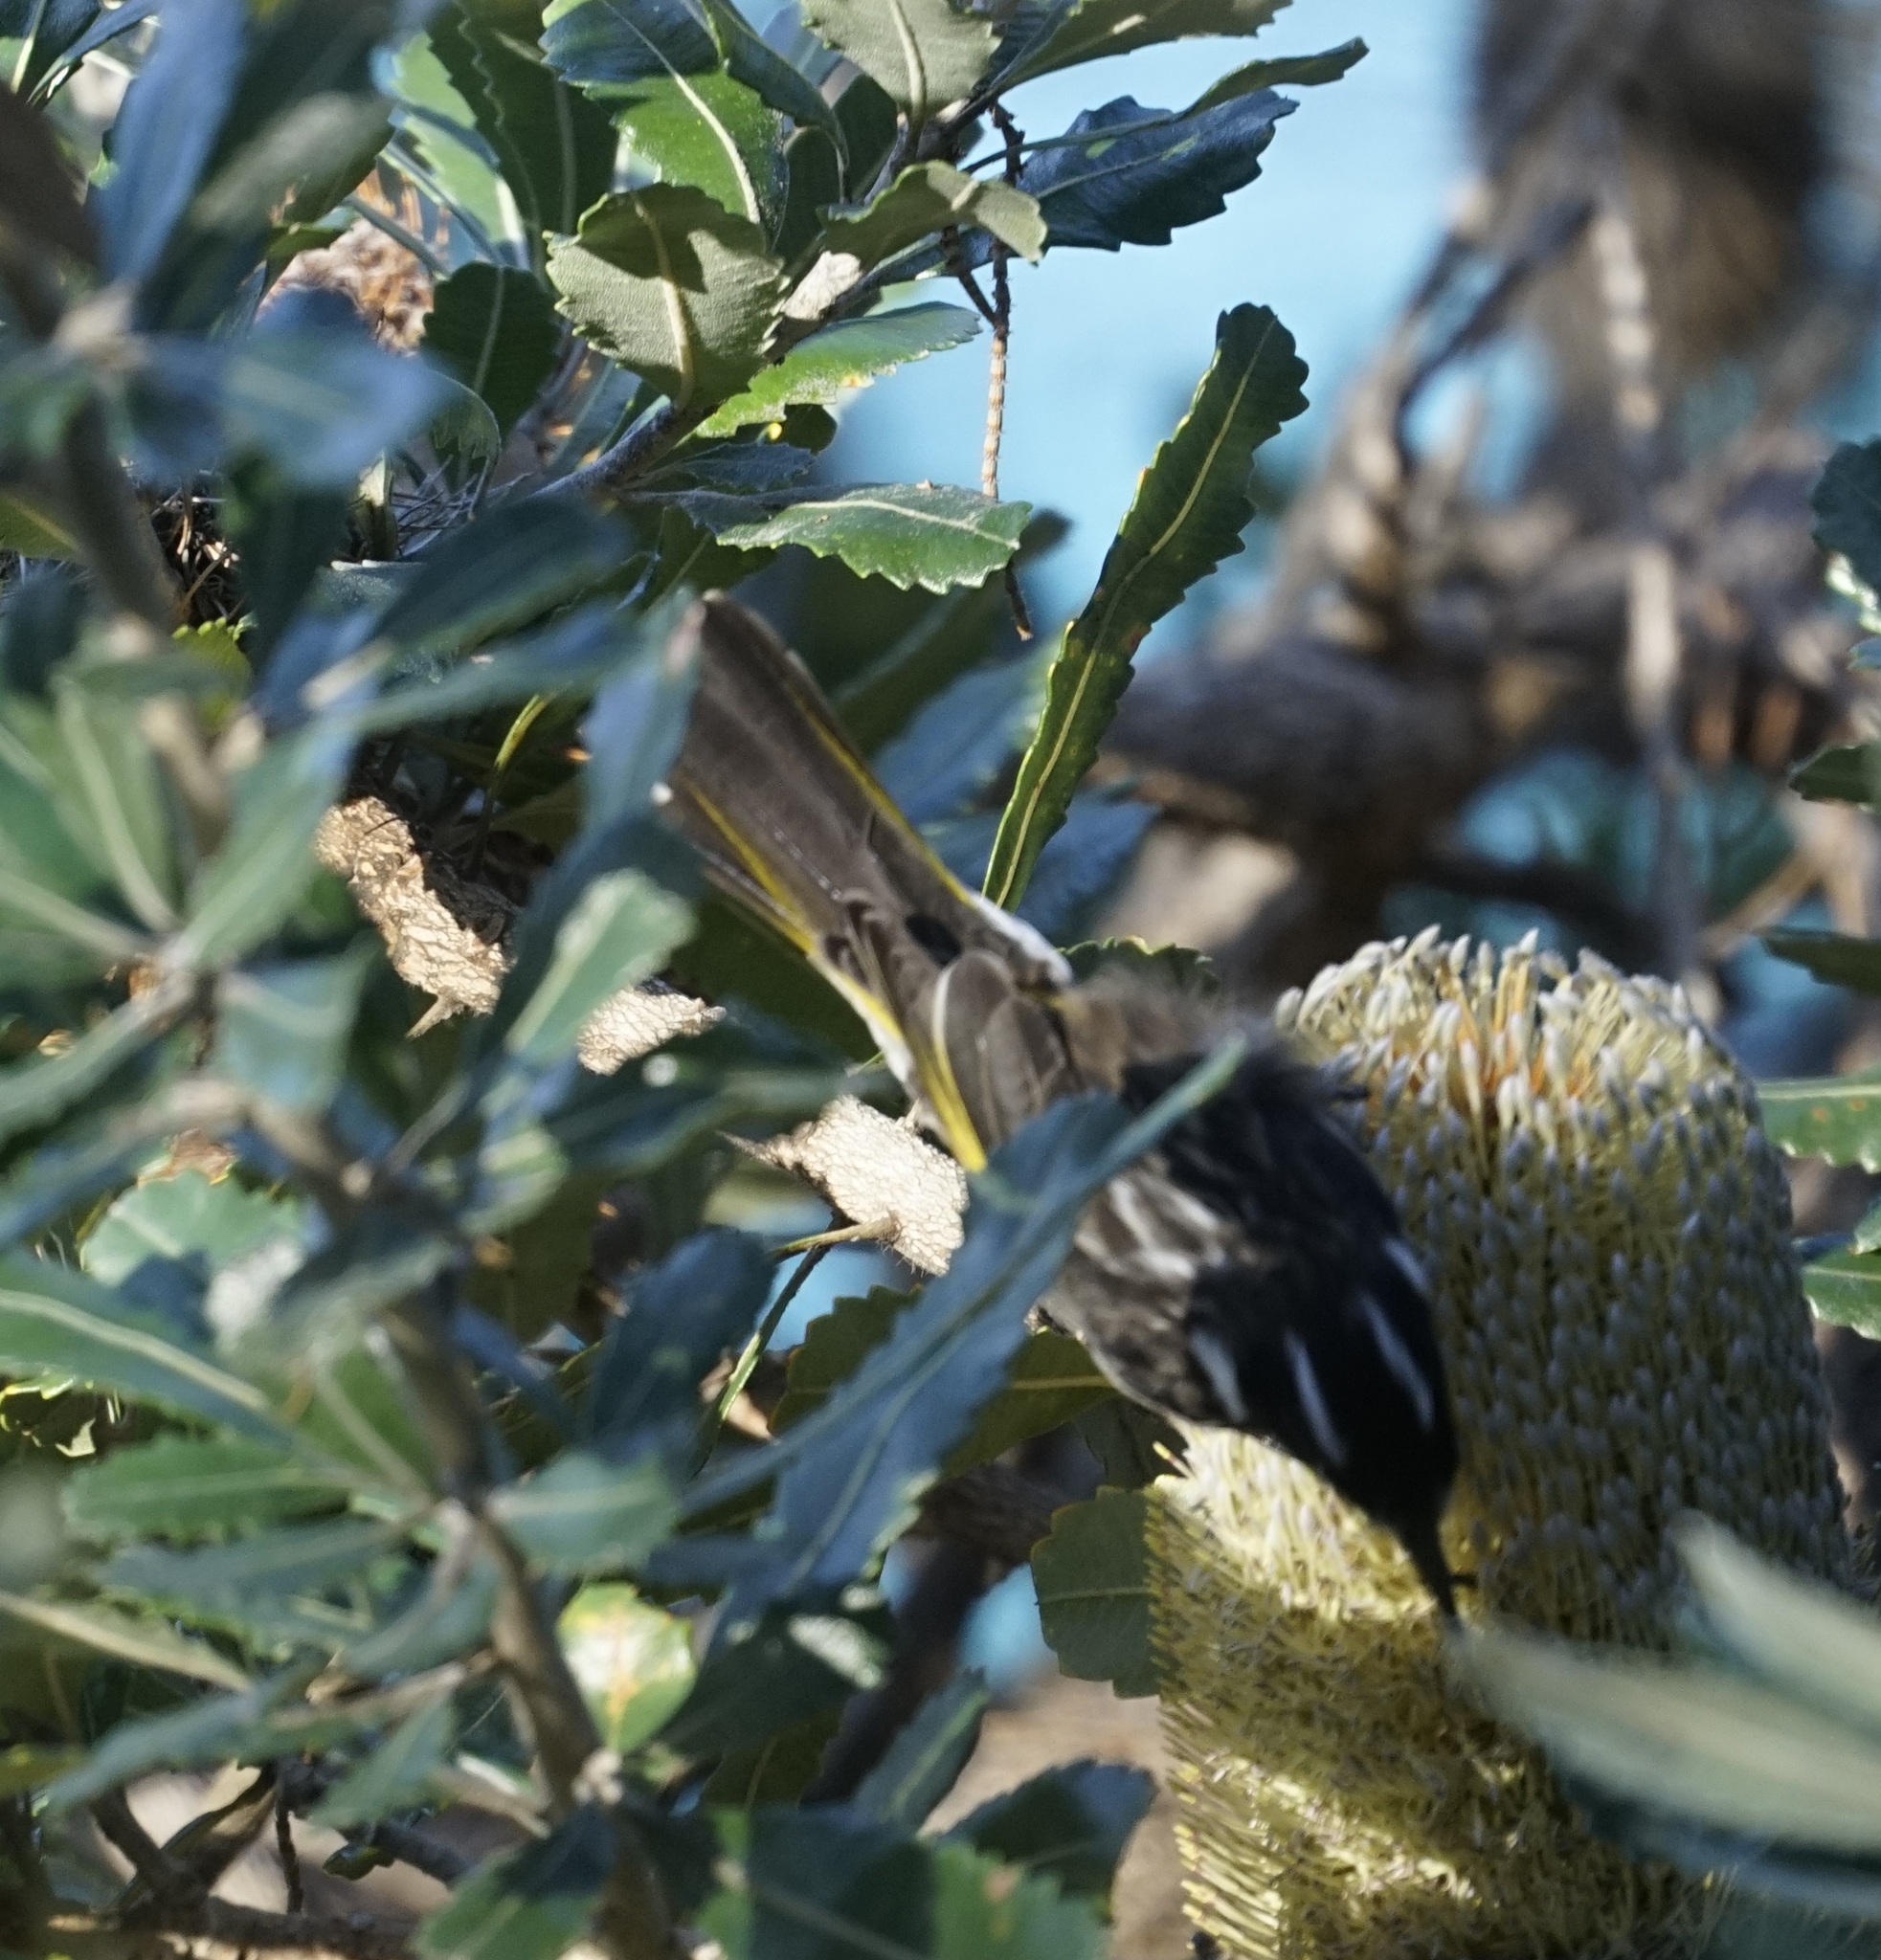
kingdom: Animalia
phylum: Chordata
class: Aves
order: Passeriformes
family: Meliphagidae
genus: Phylidonyris
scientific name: Phylidonyris novaehollandiae
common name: New holland honeyeater
